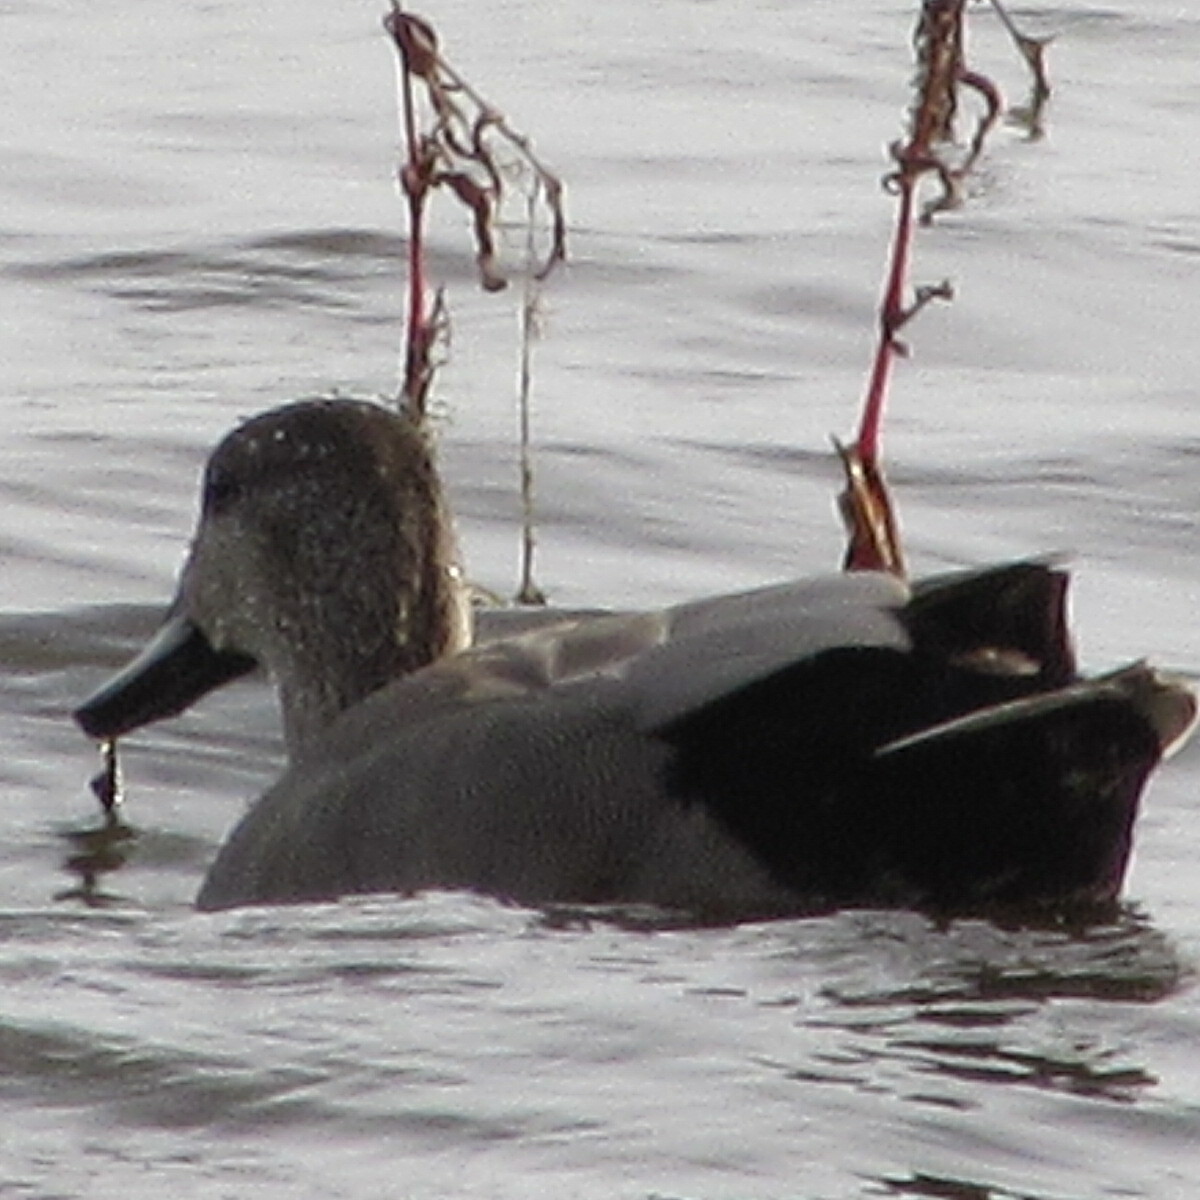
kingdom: Animalia
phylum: Chordata
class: Aves
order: Anseriformes
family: Anatidae
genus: Mareca
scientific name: Mareca strepera
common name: Gadwall
